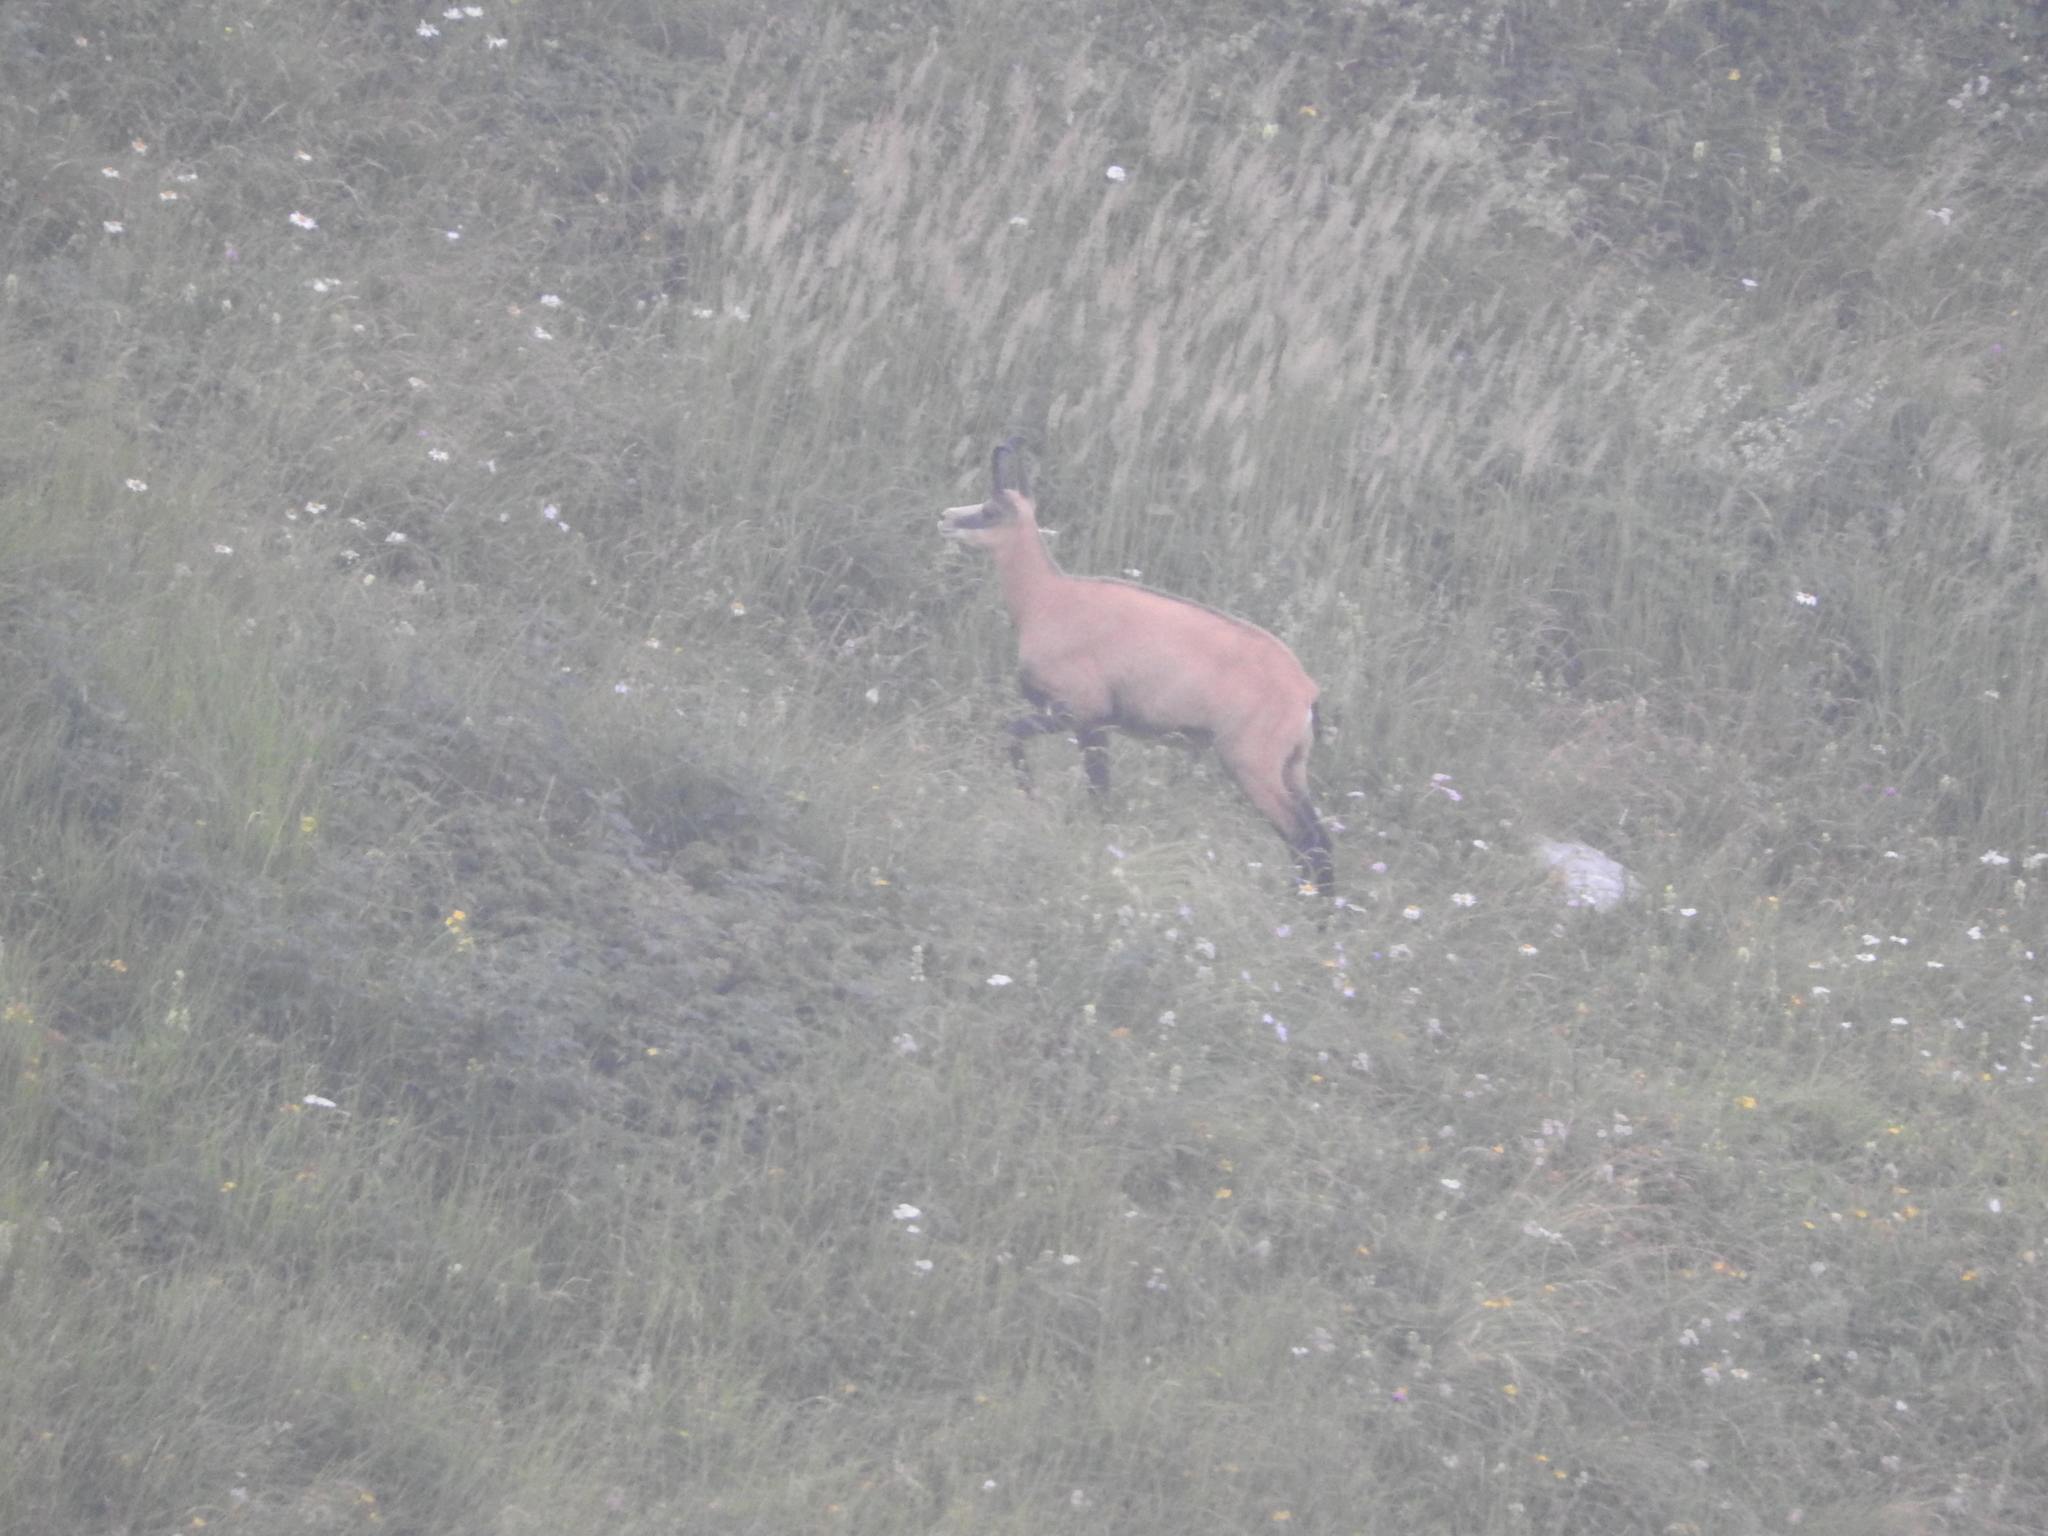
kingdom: Animalia
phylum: Chordata
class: Mammalia
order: Artiodactyla
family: Bovidae
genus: Rupicapra
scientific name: Rupicapra rupicapra
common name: Chamois
